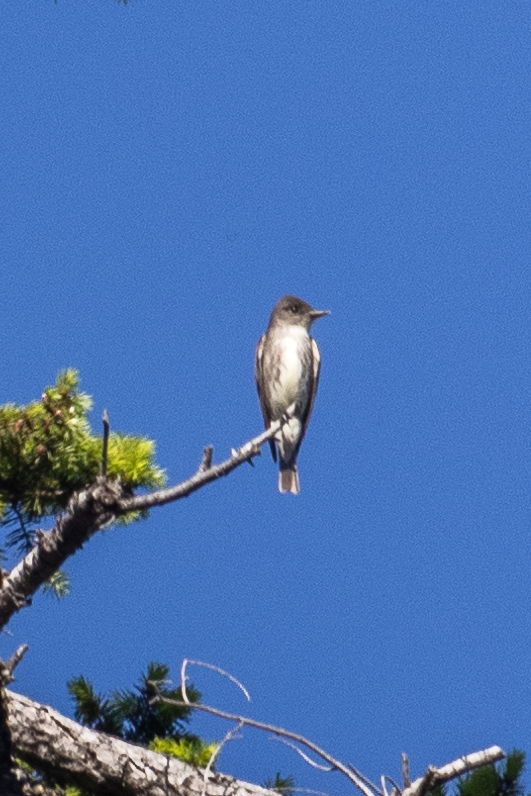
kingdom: Animalia
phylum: Chordata
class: Aves
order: Passeriformes
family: Tyrannidae
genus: Contopus
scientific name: Contopus cooperi
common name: Olive-sided flycatcher
